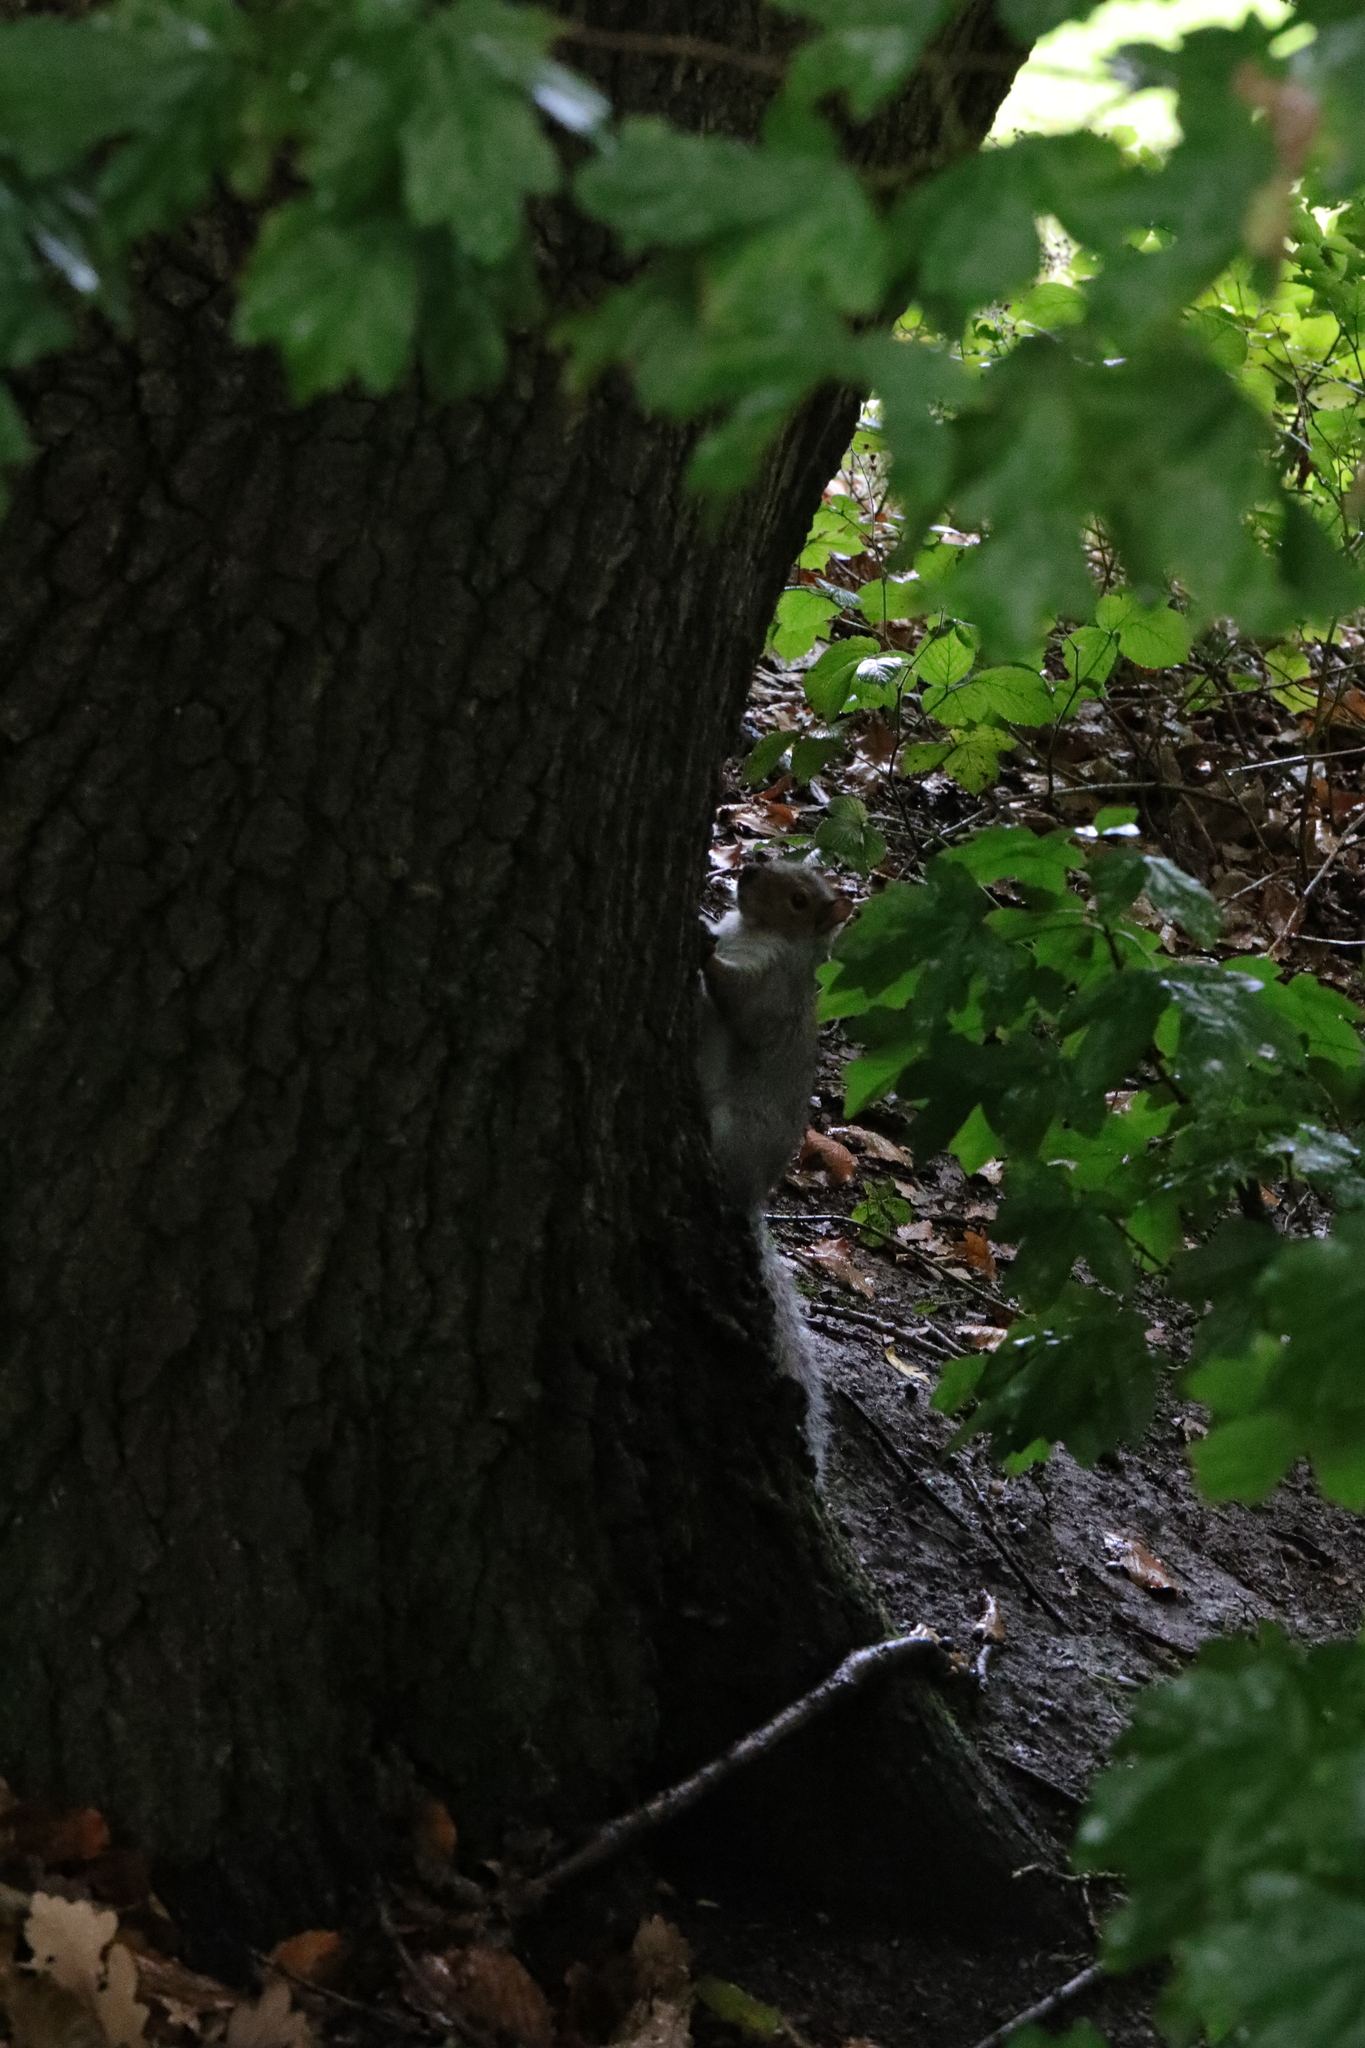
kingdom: Animalia
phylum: Chordata
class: Mammalia
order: Rodentia
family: Sciuridae
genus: Sciurus
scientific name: Sciurus carolinensis
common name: Eastern gray squirrel
